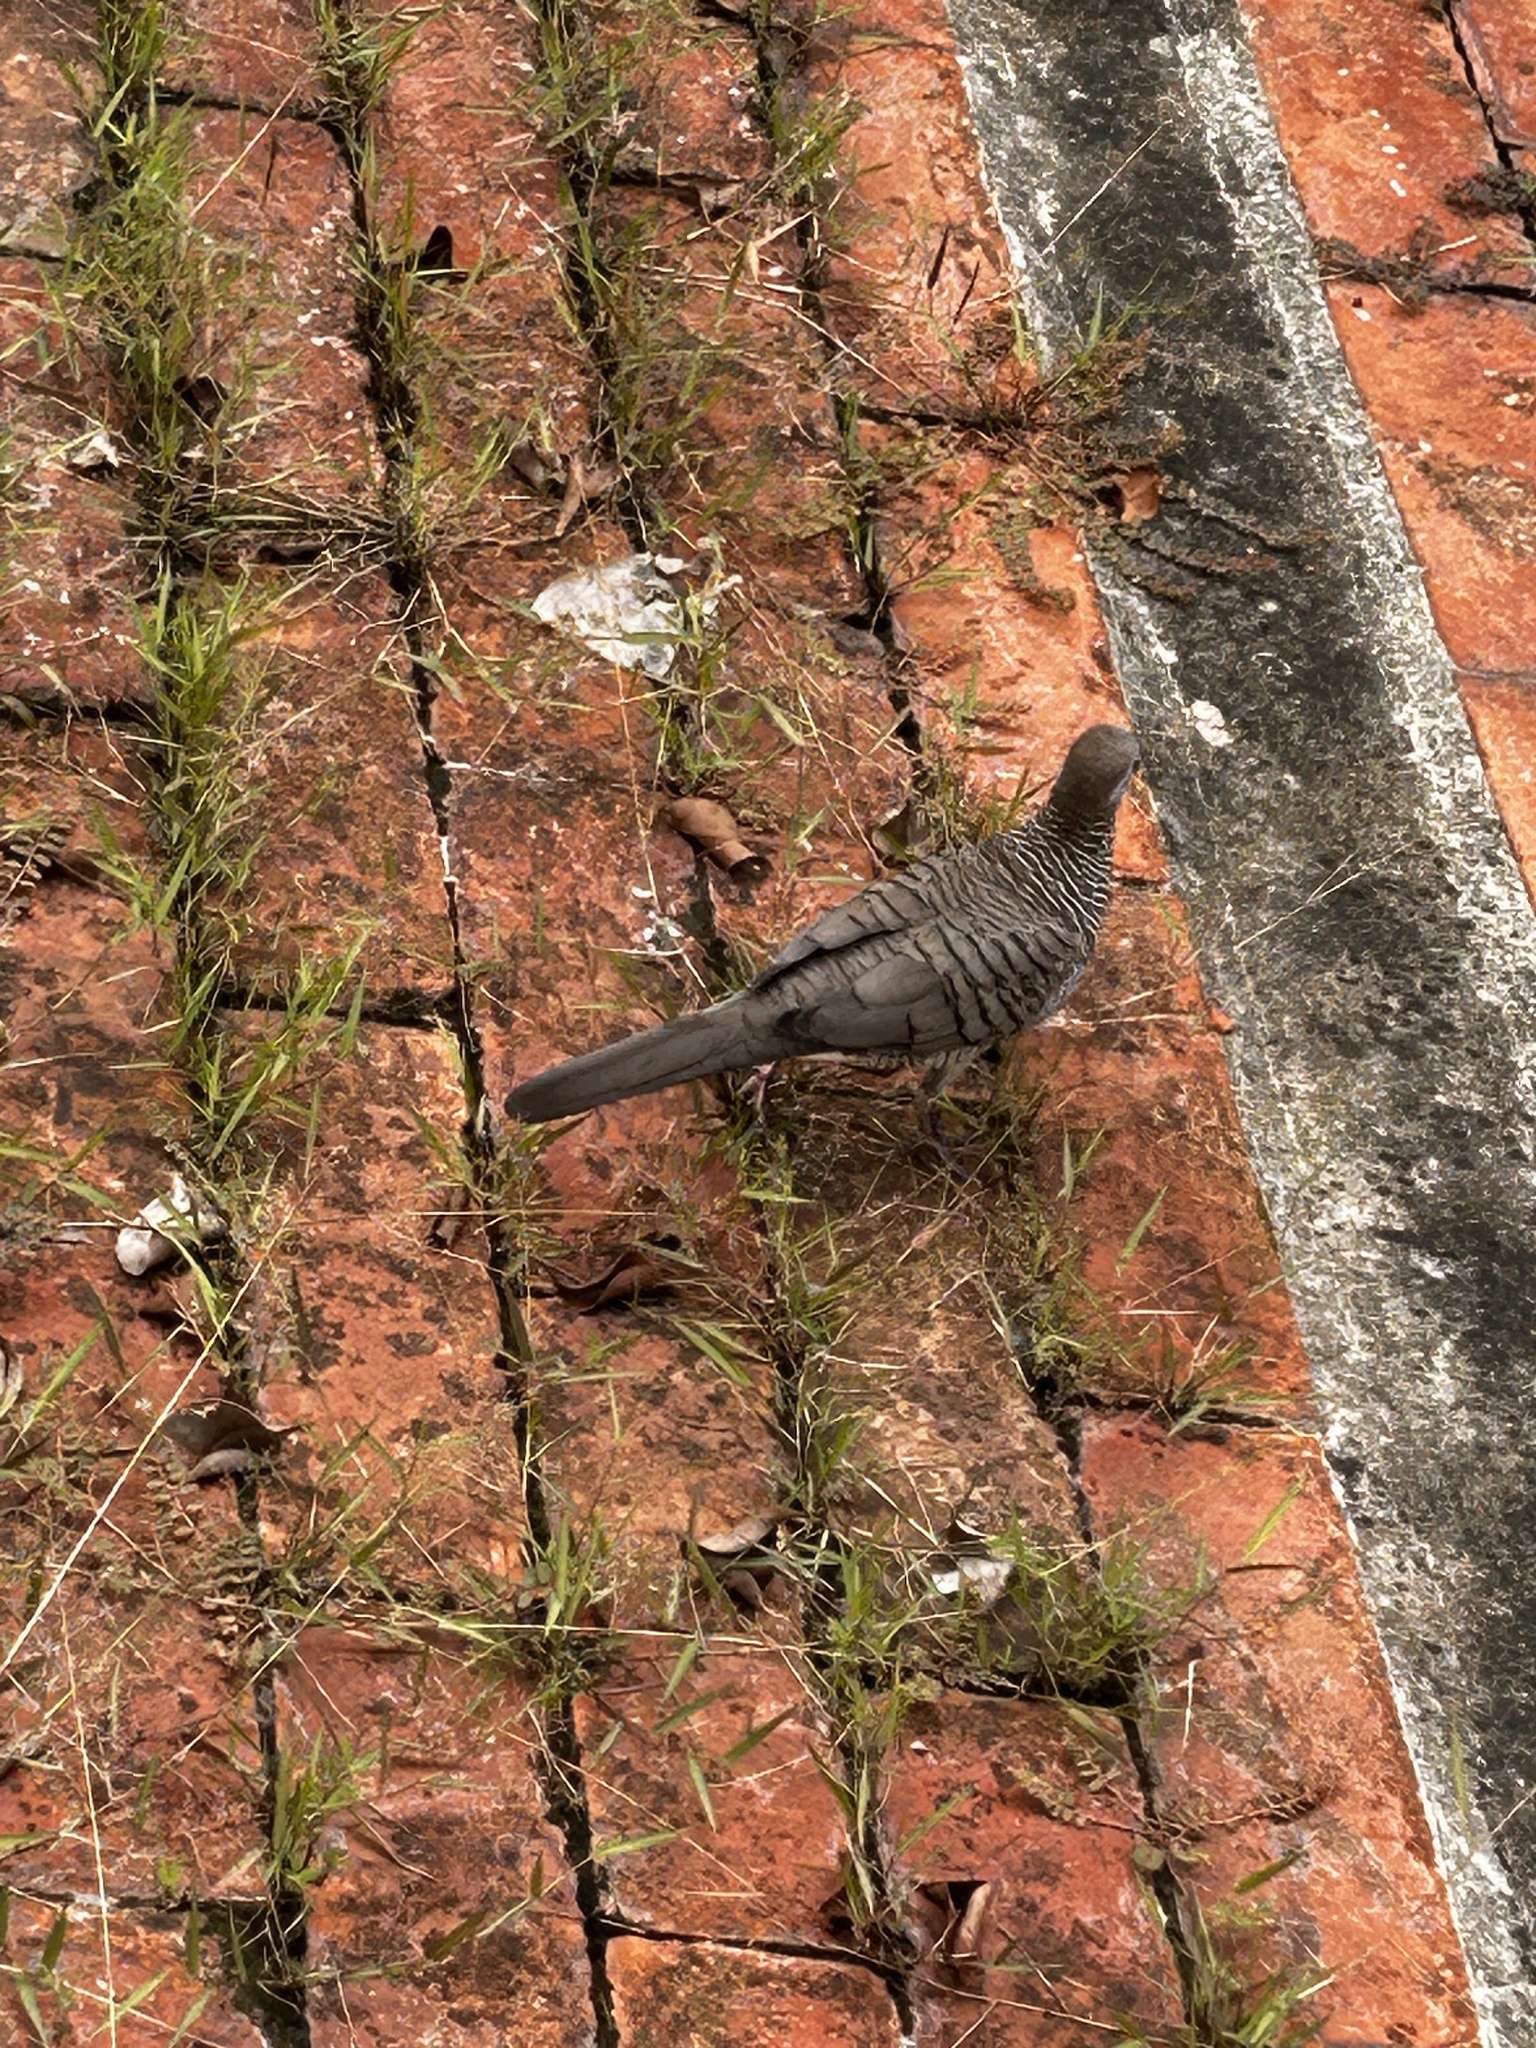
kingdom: Animalia
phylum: Chordata
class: Aves
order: Columbiformes
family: Columbidae
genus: Geopelia
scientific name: Geopelia striata
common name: Zebra dove
